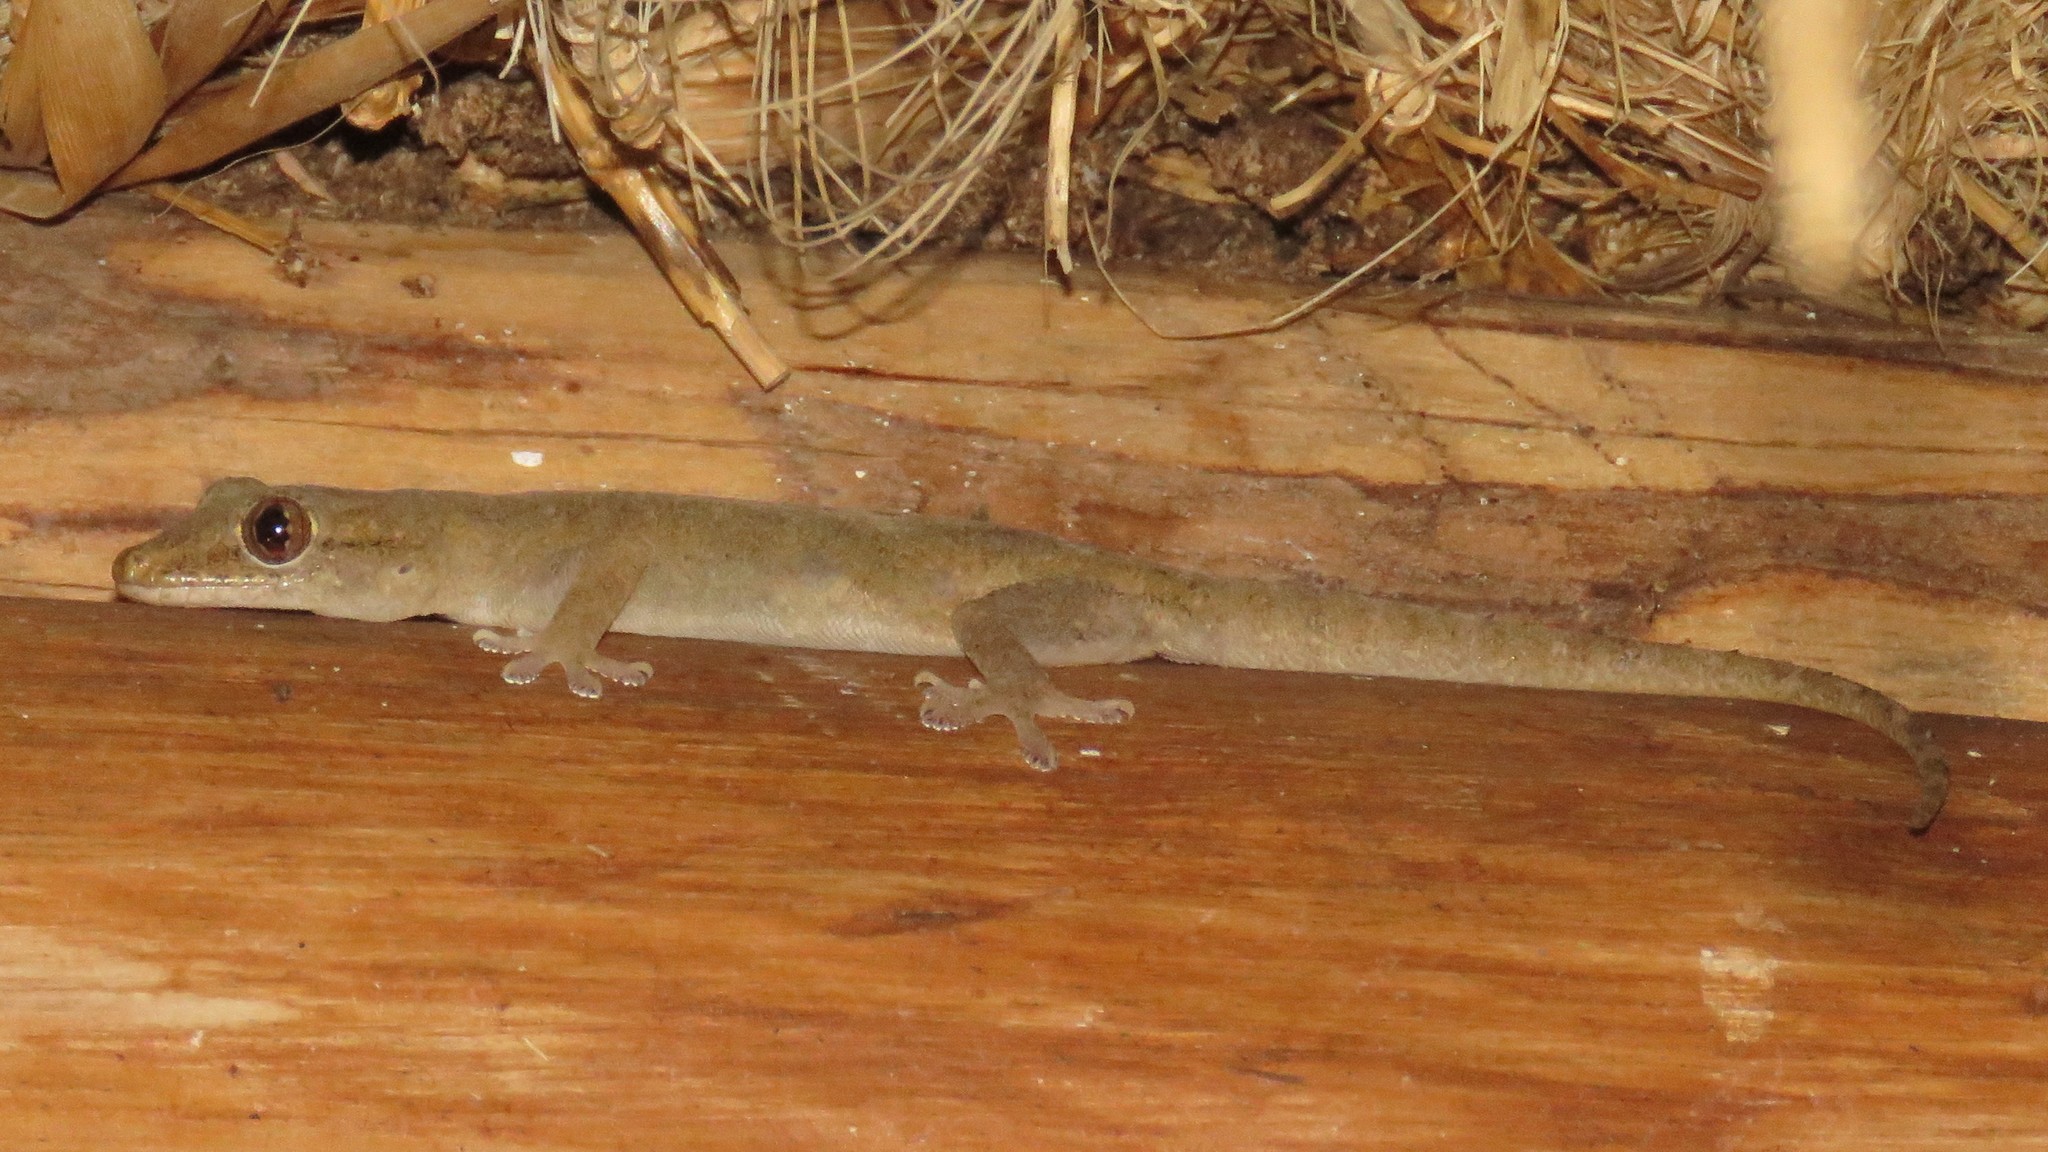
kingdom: Animalia
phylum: Chordata
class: Squamata
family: Gekkonidae
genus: Hemidactylus
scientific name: Hemidactylus frenatus
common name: Common house gecko
